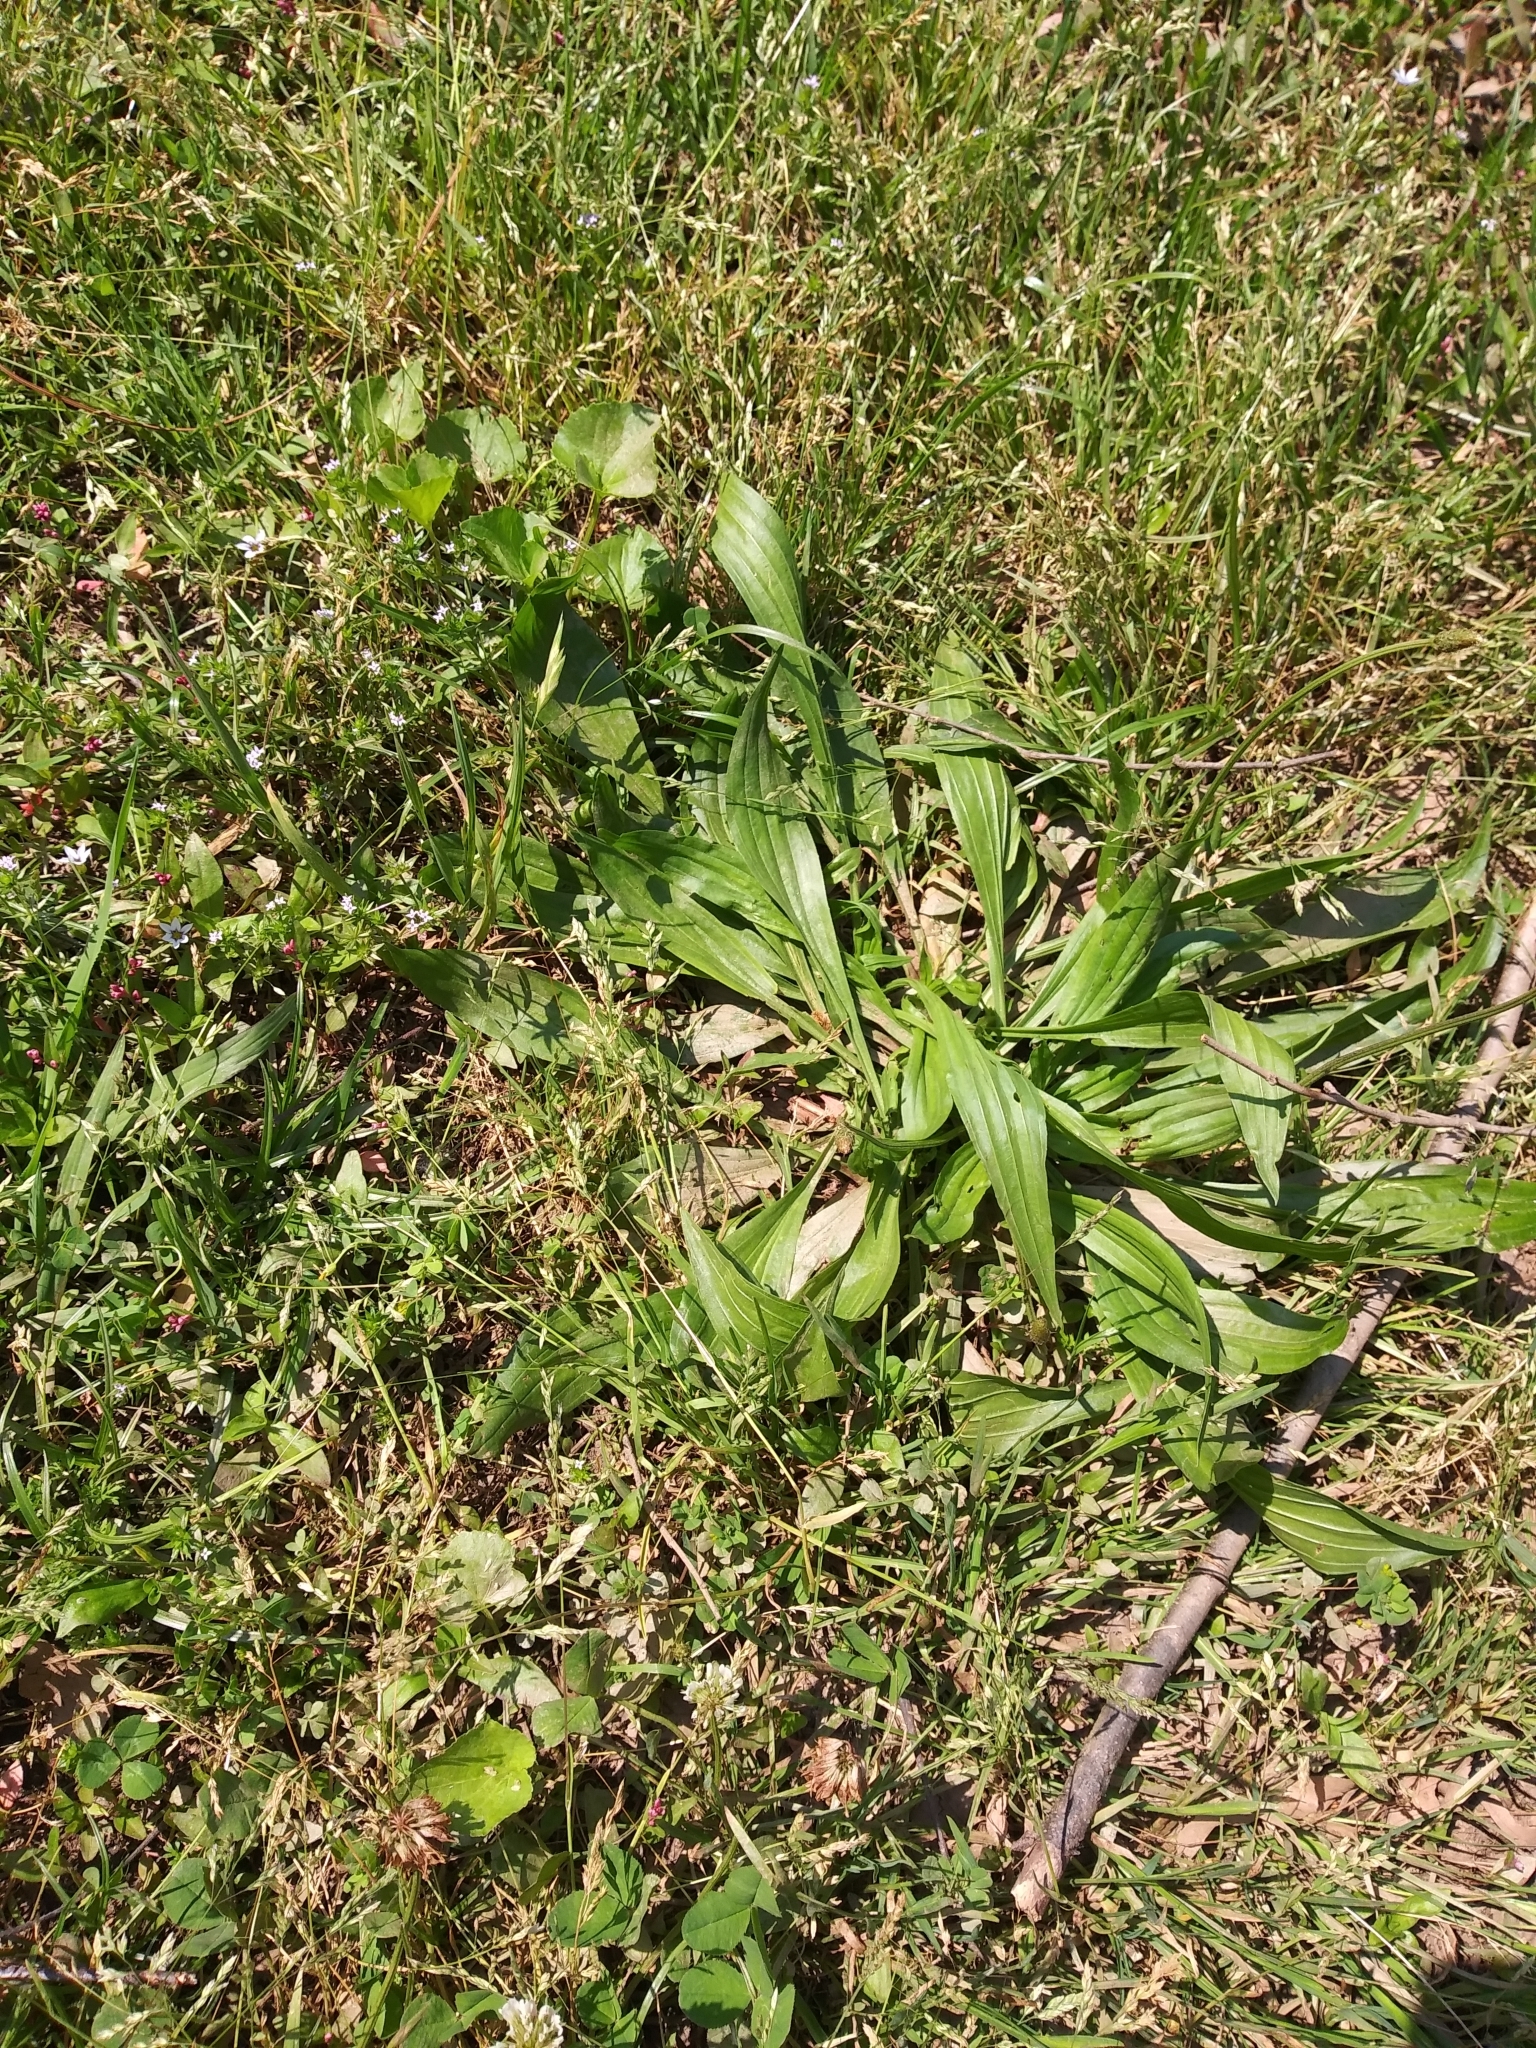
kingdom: Plantae
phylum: Tracheophyta
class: Magnoliopsida
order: Lamiales
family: Plantaginaceae
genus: Plantago
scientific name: Plantago lanceolata
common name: Ribwort plantain
